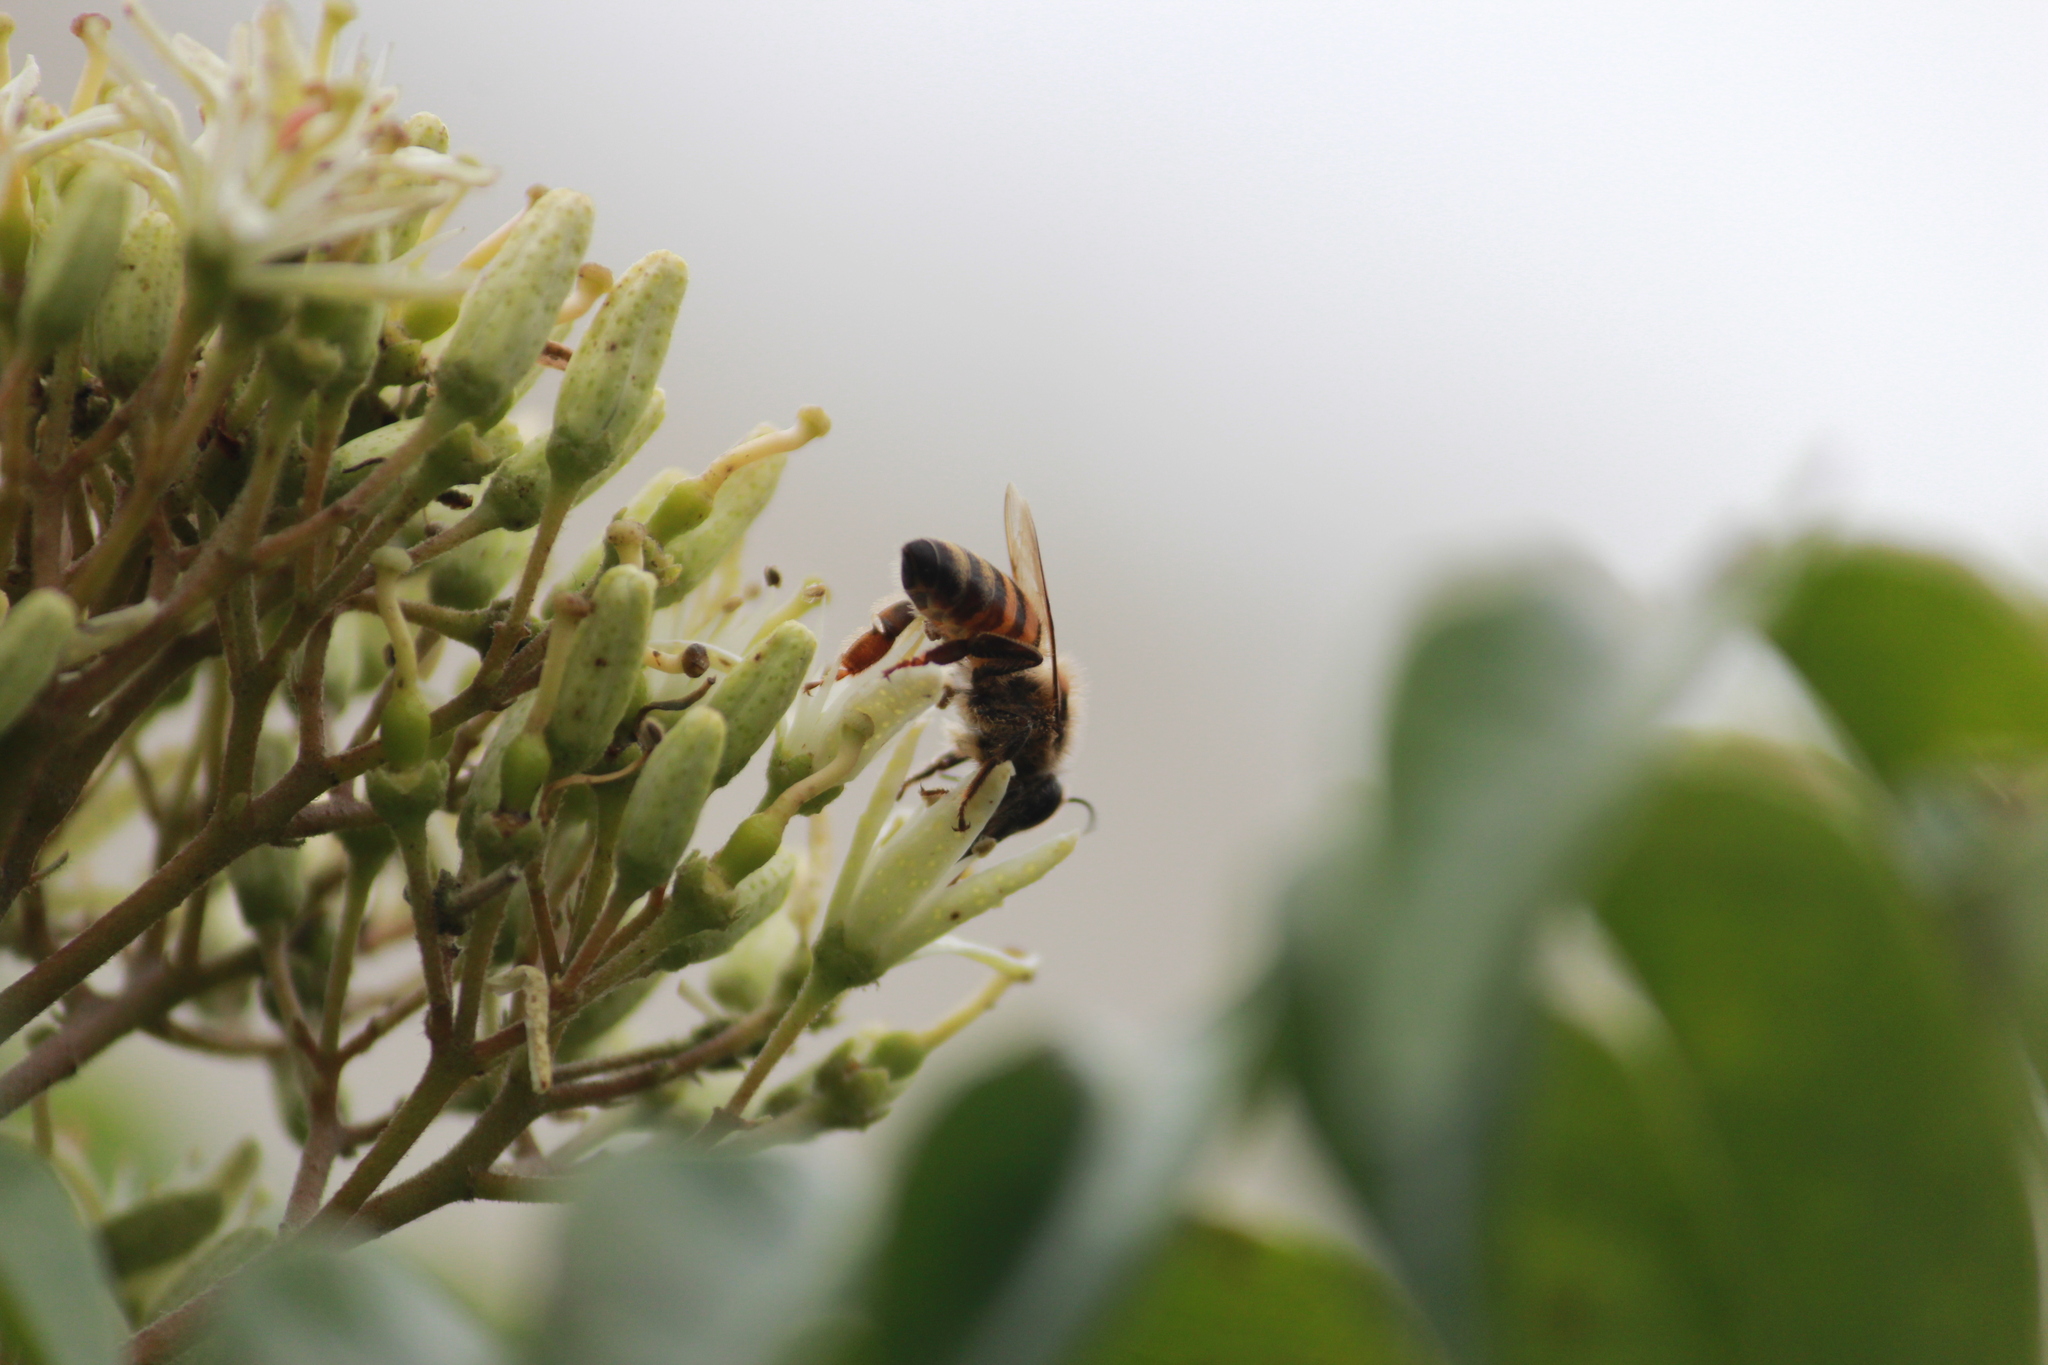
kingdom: Animalia
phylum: Arthropoda
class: Insecta
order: Hymenoptera
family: Apidae
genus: Apis
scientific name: Apis mellifera
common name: Honey bee
